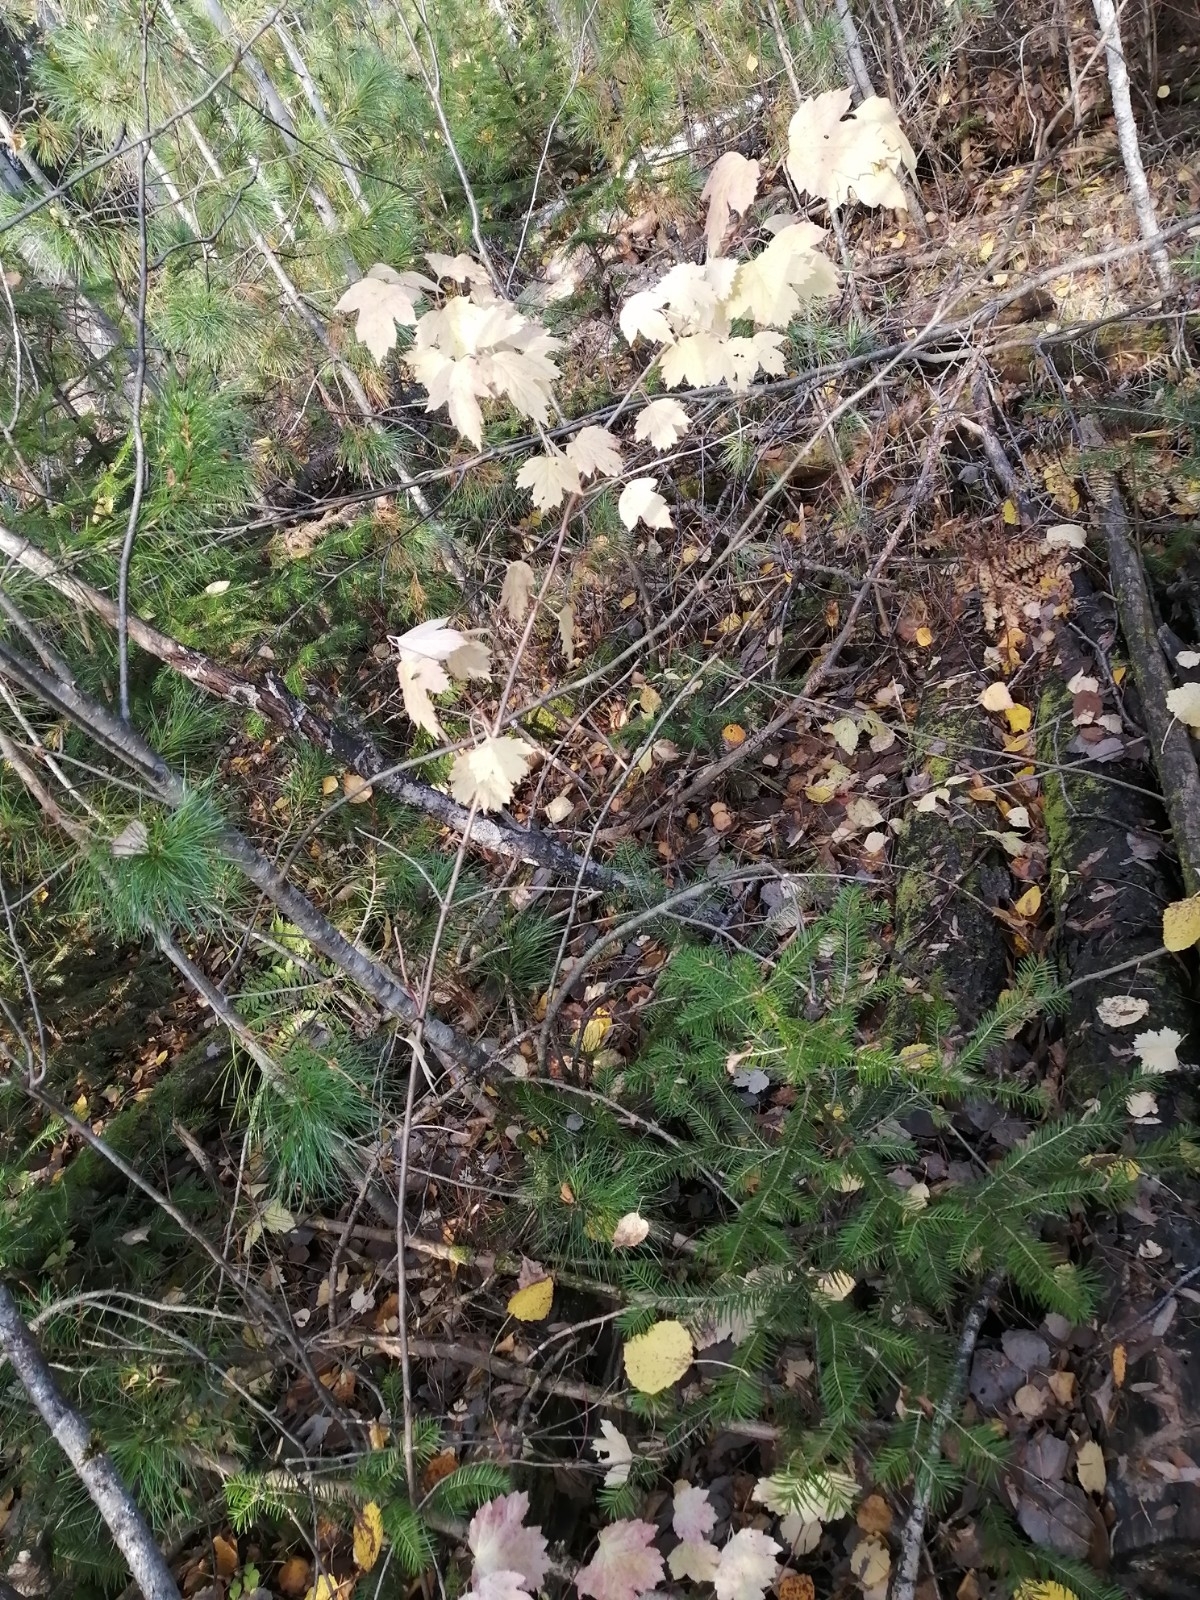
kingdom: Plantae
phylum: Tracheophyta
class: Magnoliopsida
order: Dipsacales
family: Viburnaceae
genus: Viburnum
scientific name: Viburnum opulus
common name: Guelder-rose
